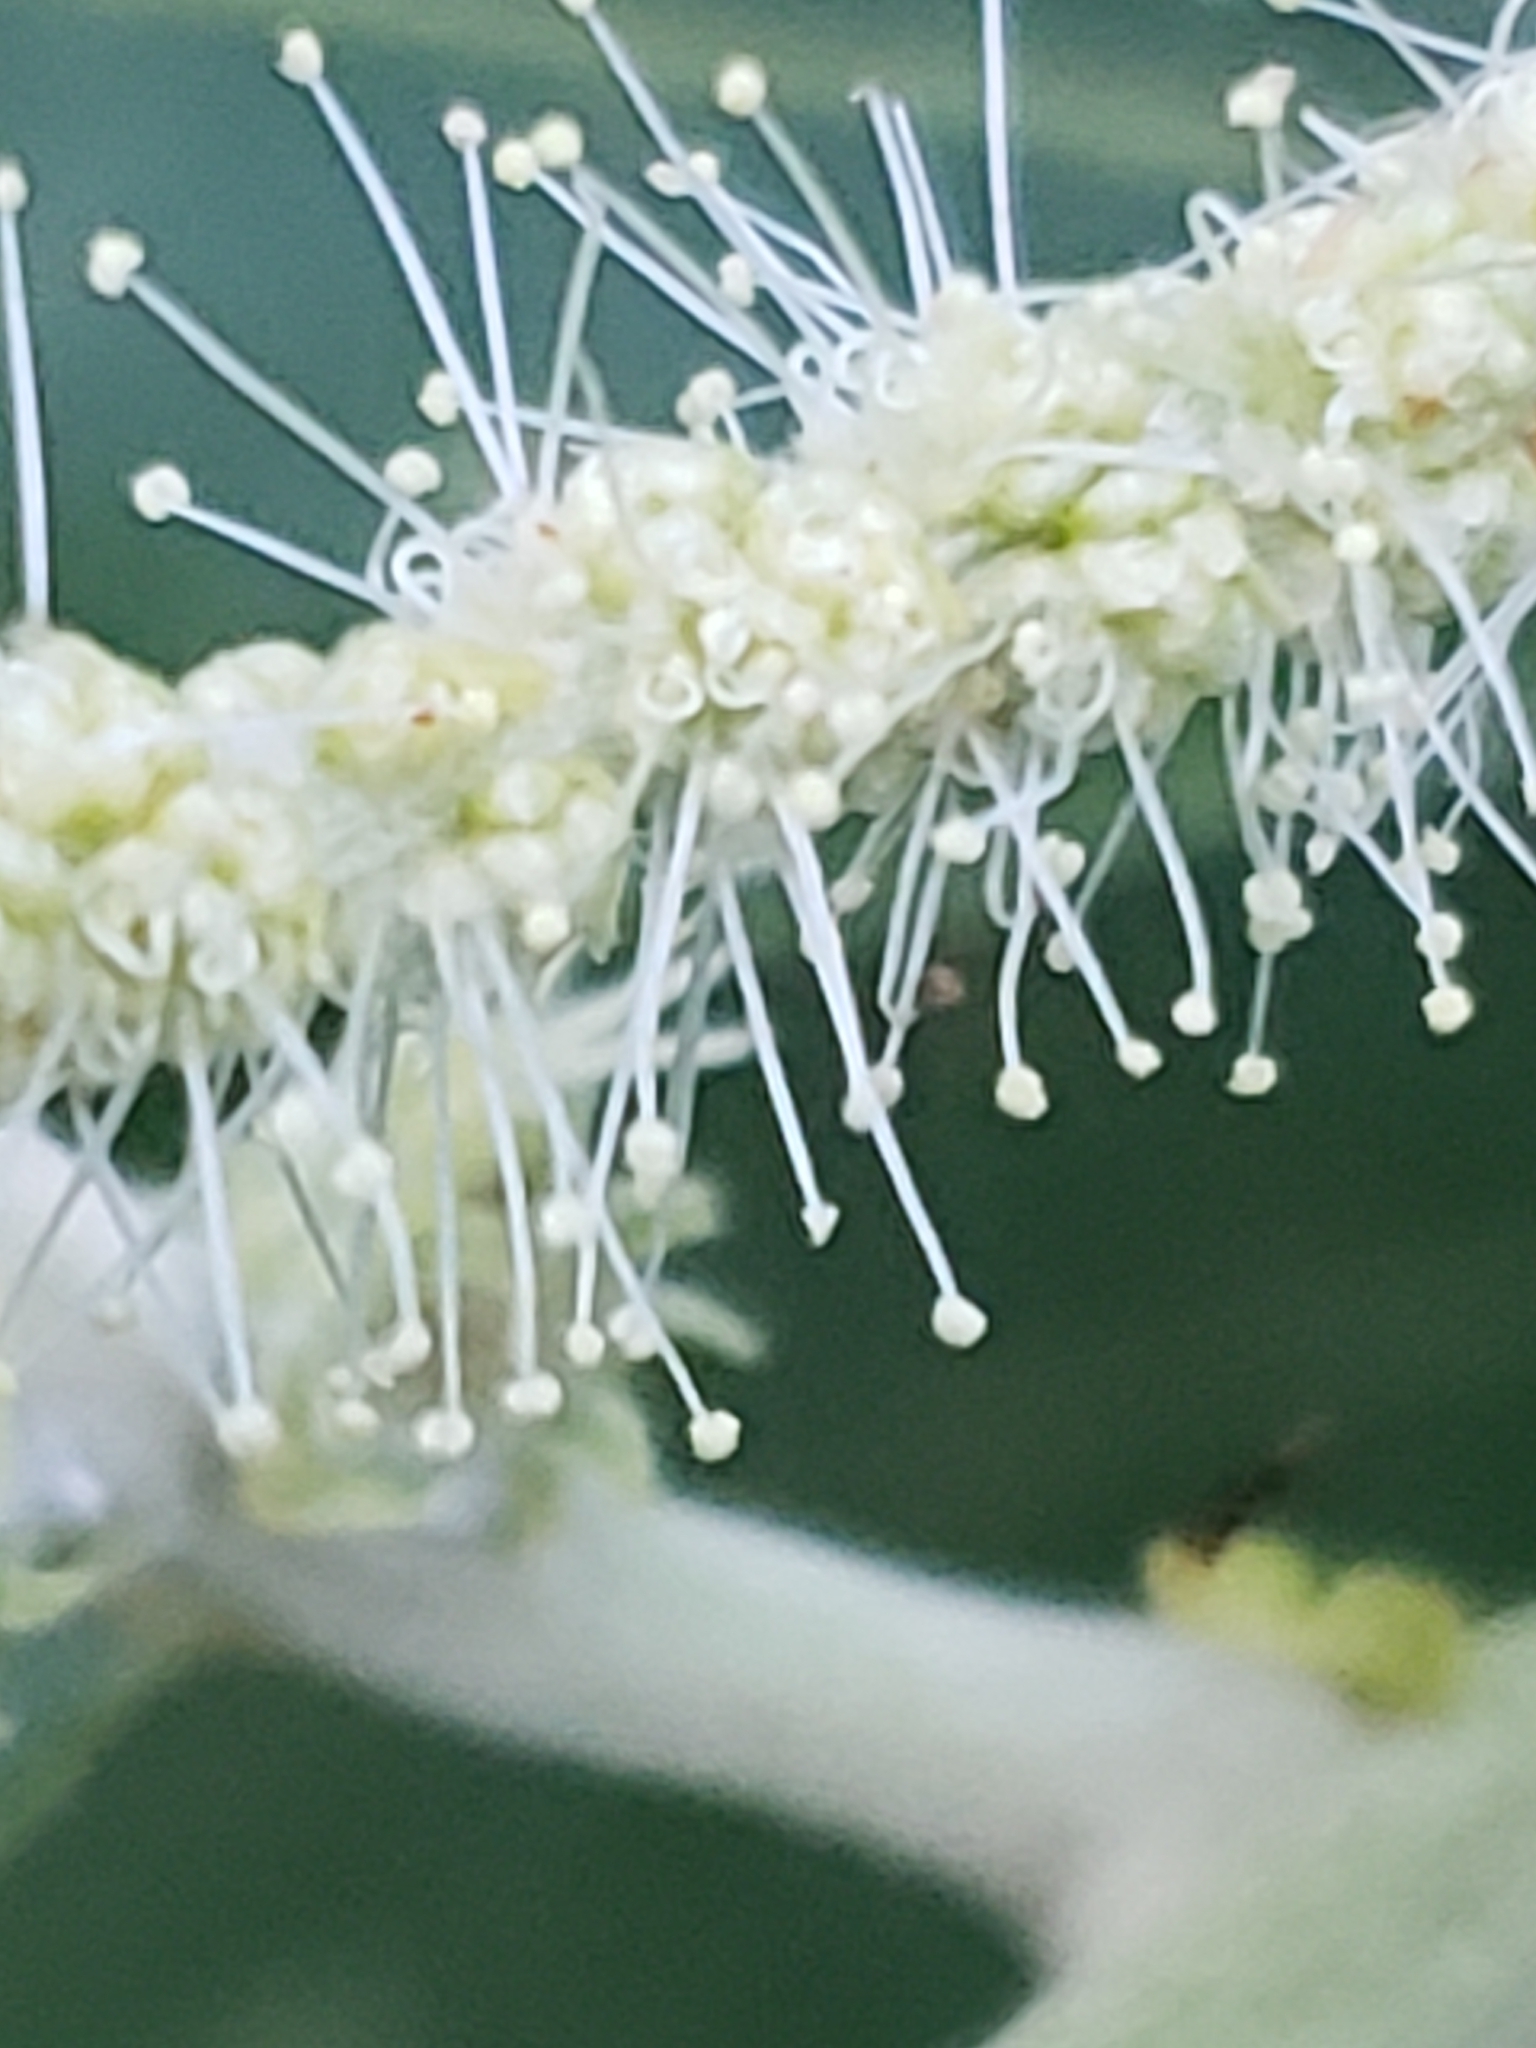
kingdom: Plantae
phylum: Tracheophyta
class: Magnoliopsida
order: Fagales
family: Fagaceae
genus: Castanea
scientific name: Castanea pumila
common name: Chinkapin
